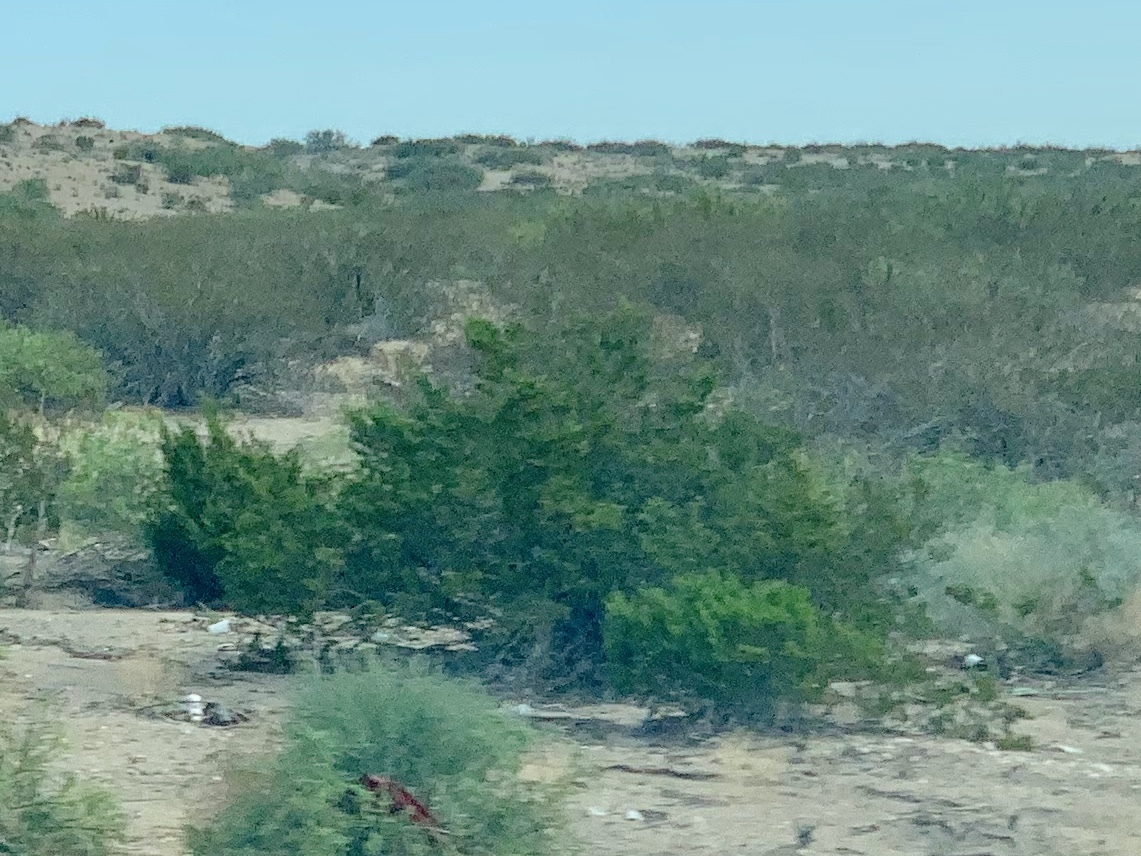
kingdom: Plantae
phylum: Tracheophyta
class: Magnoliopsida
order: Zygophyllales
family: Zygophyllaceae
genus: Larrea
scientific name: Larrea tridentata
